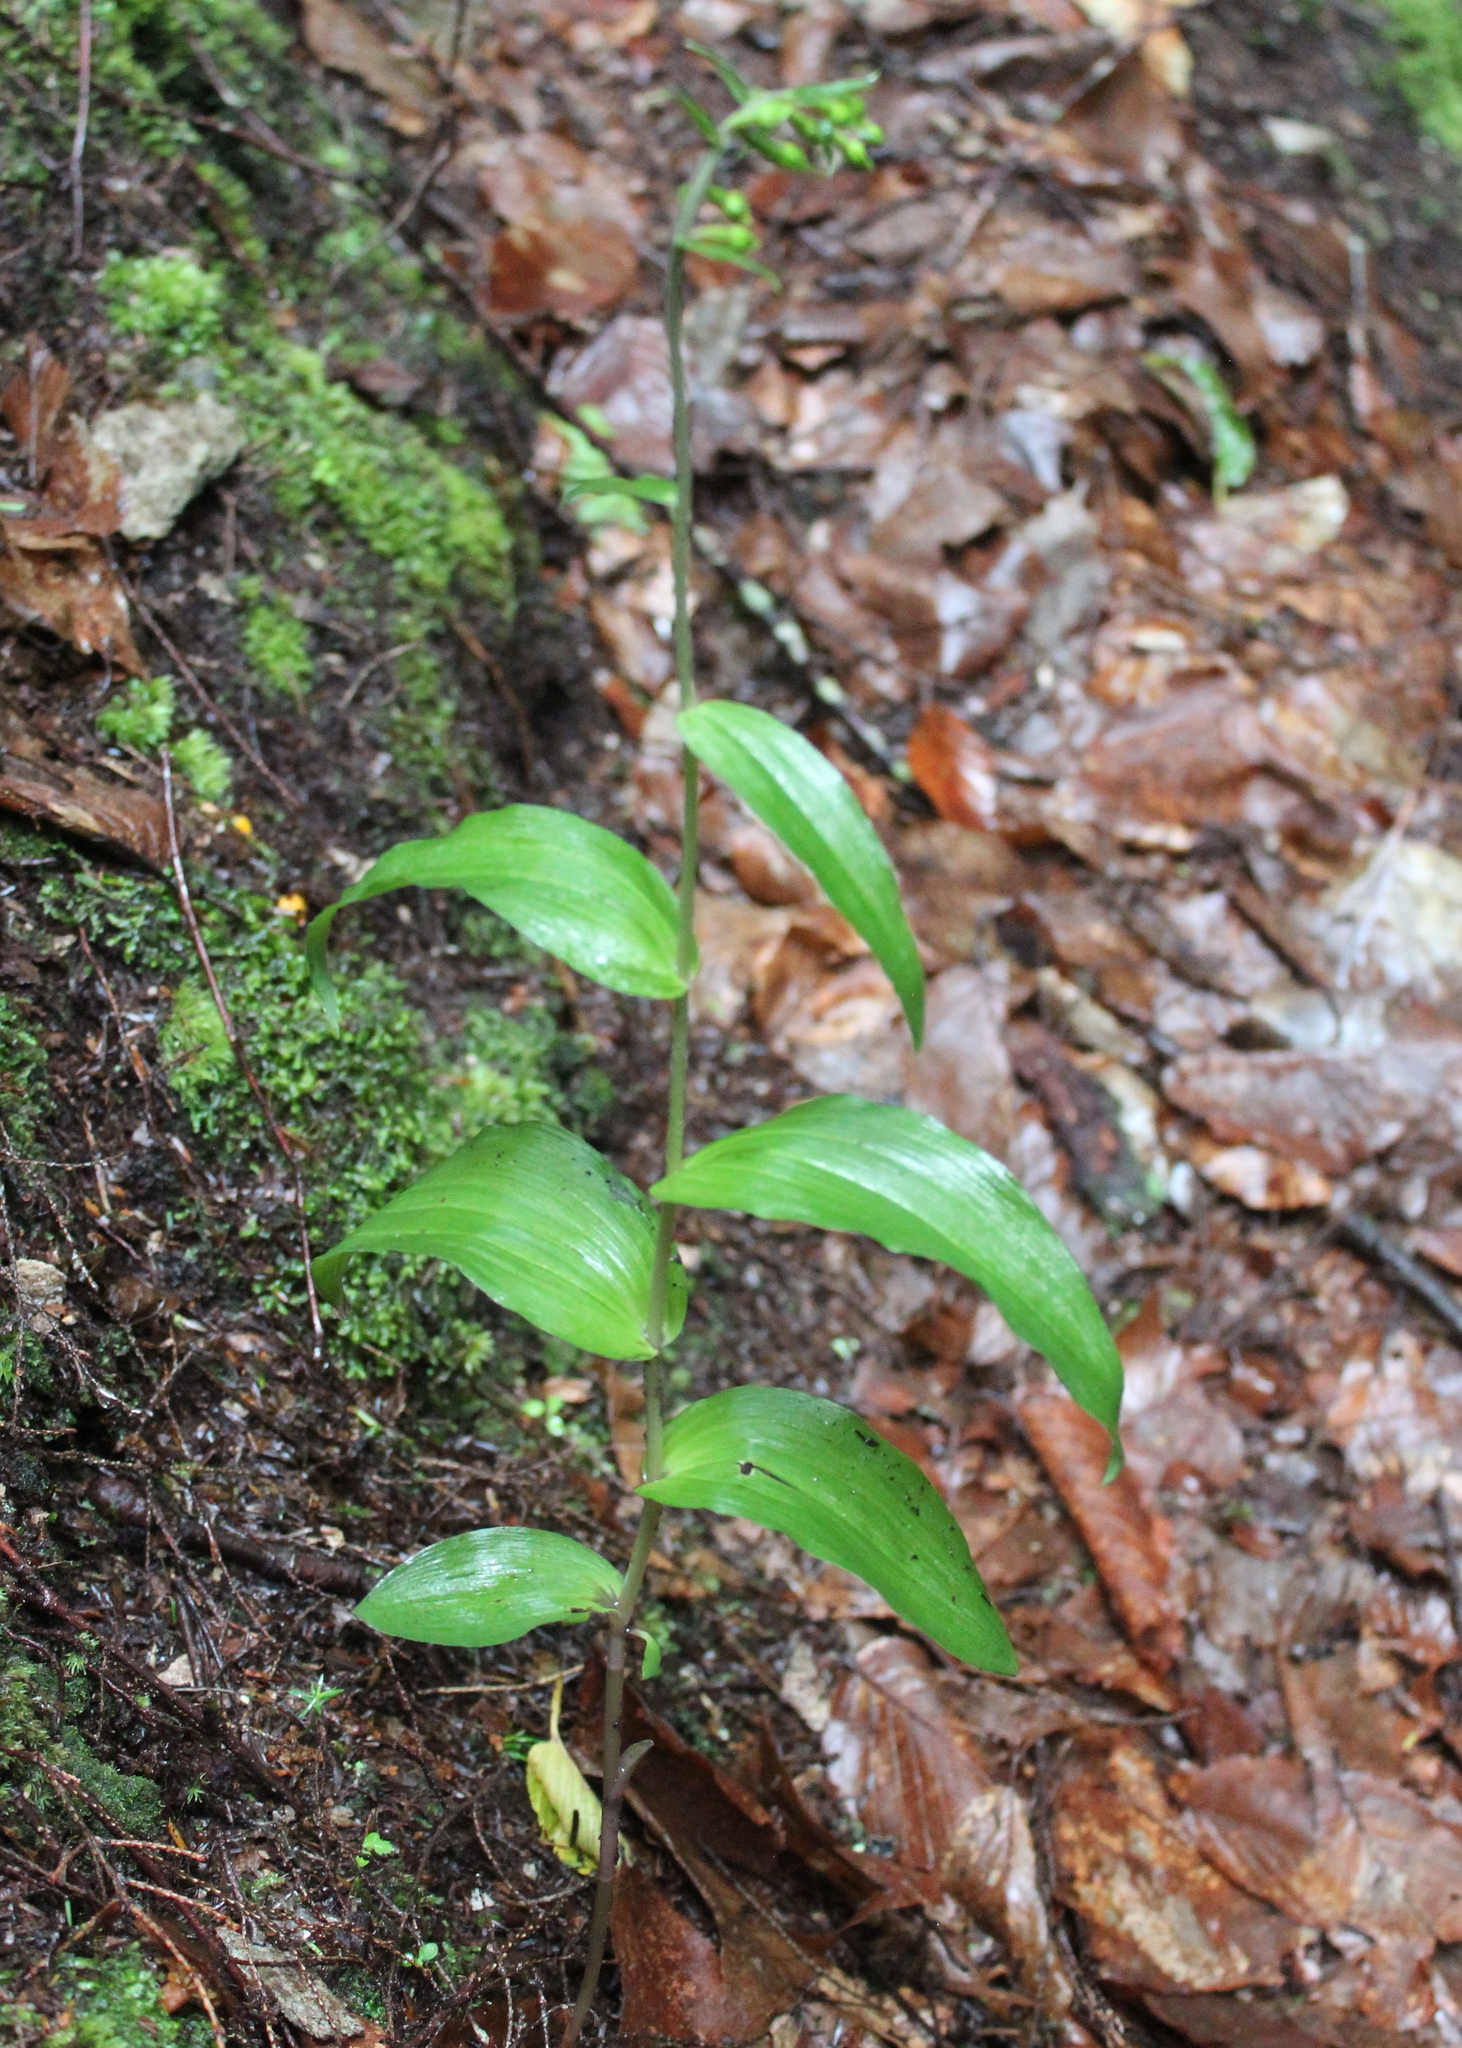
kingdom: Plantae
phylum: Tracheophyta
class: Liliopsida
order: Asparagales
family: Orchidaceae
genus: Epipactis
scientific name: Epipactis helleborine
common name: Broad-leaved helleborine
